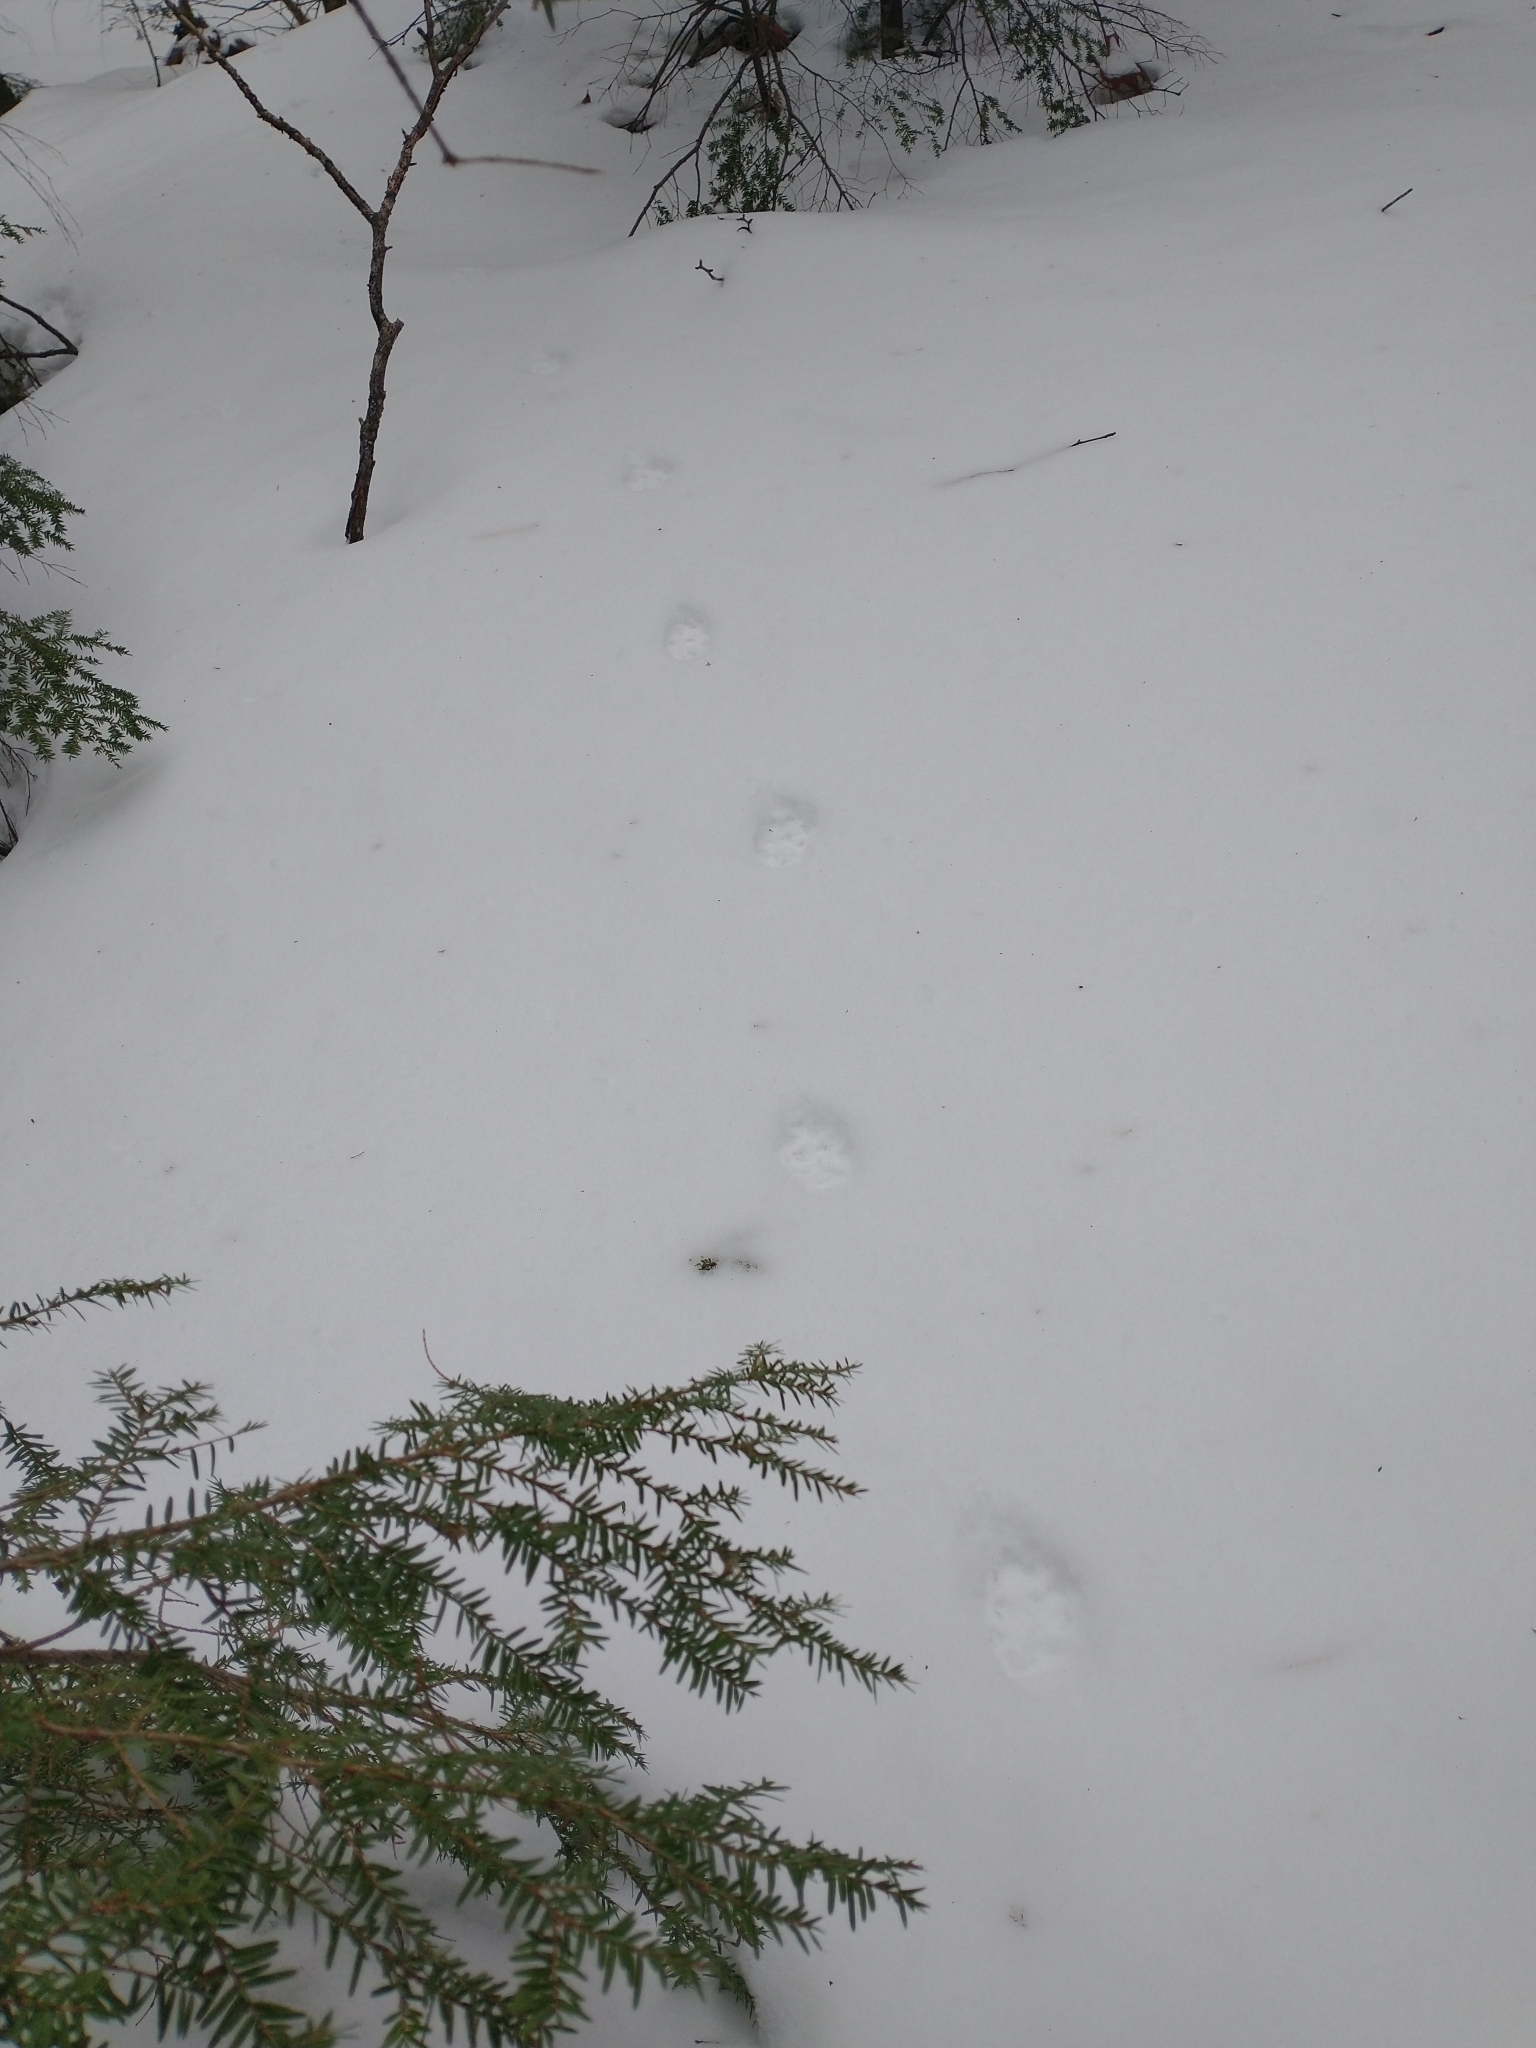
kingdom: Animalia
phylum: Chordata
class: Mammalia
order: Carnivora
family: Canidae
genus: Urocyon
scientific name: Urocyon cinereoargenteus
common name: Gray fox
